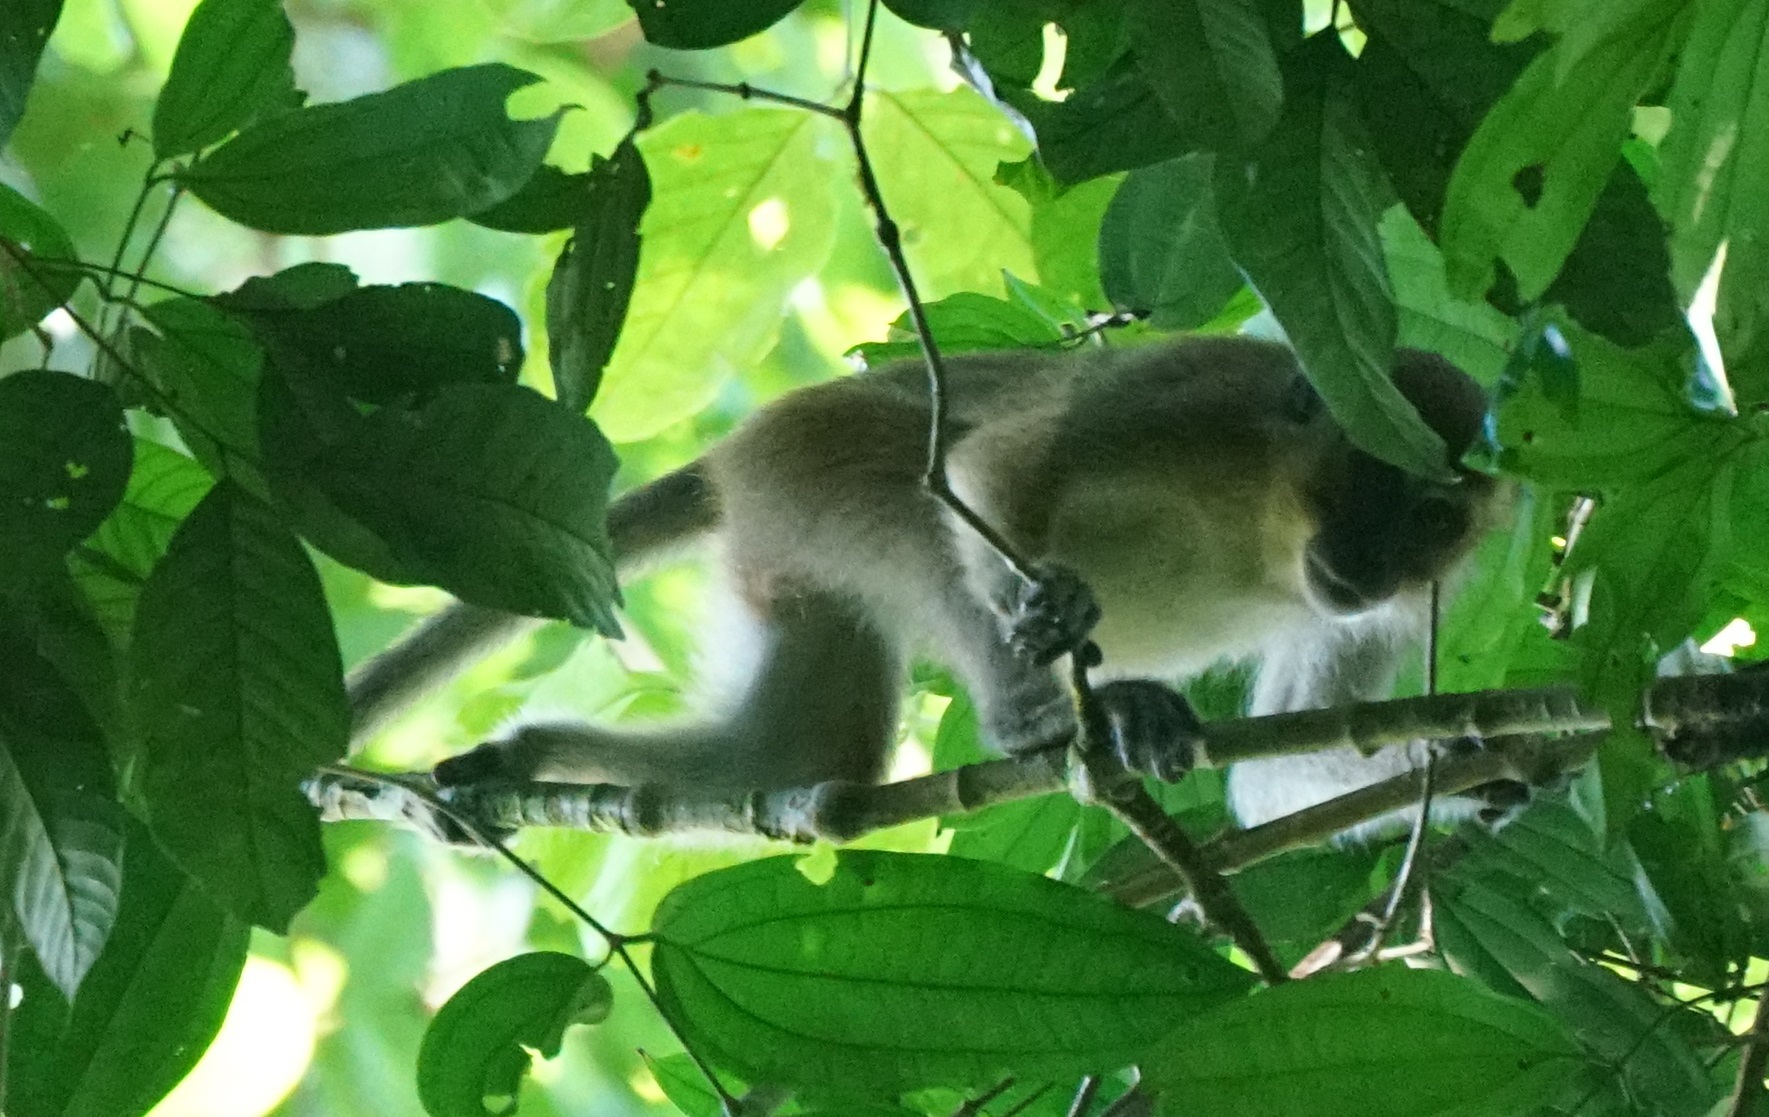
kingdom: Animalia
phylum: Chordata
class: Mammalia
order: Primates
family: Cercopithecidae
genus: Macaca
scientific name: Macaca fascicularis
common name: Crab-eating macaque
